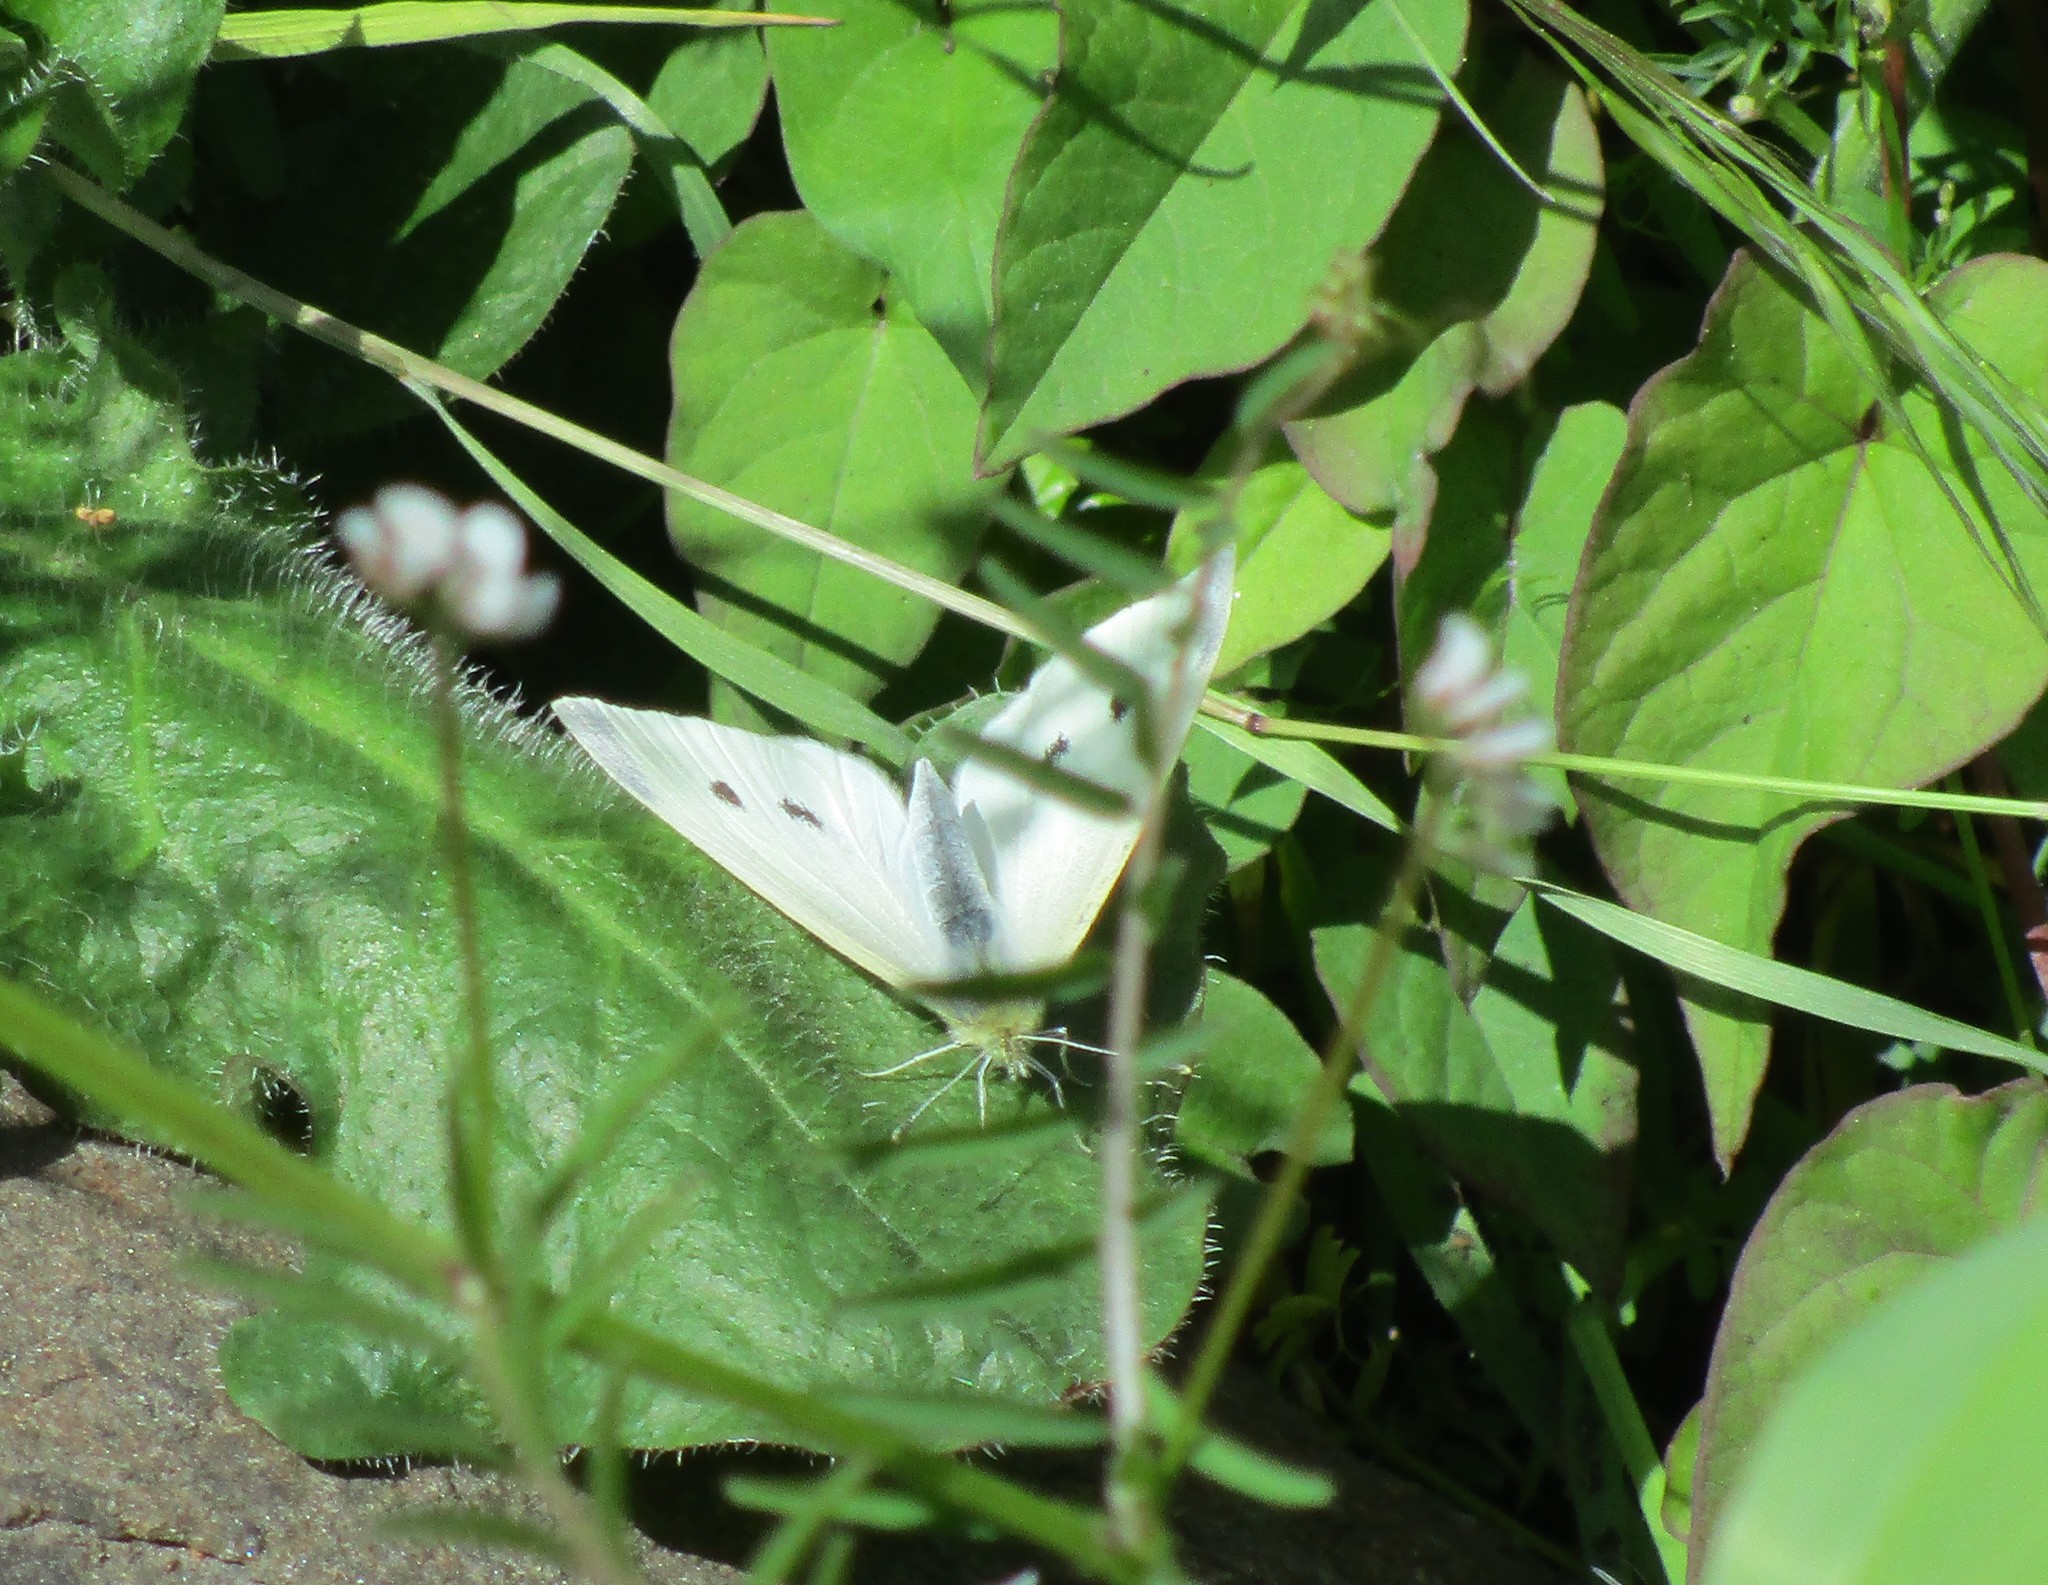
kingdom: Animalia
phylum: Arthropoda
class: Insecta
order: Lepidoptera
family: Pieridae
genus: Pieris
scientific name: Pieris rapae
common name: Small white
